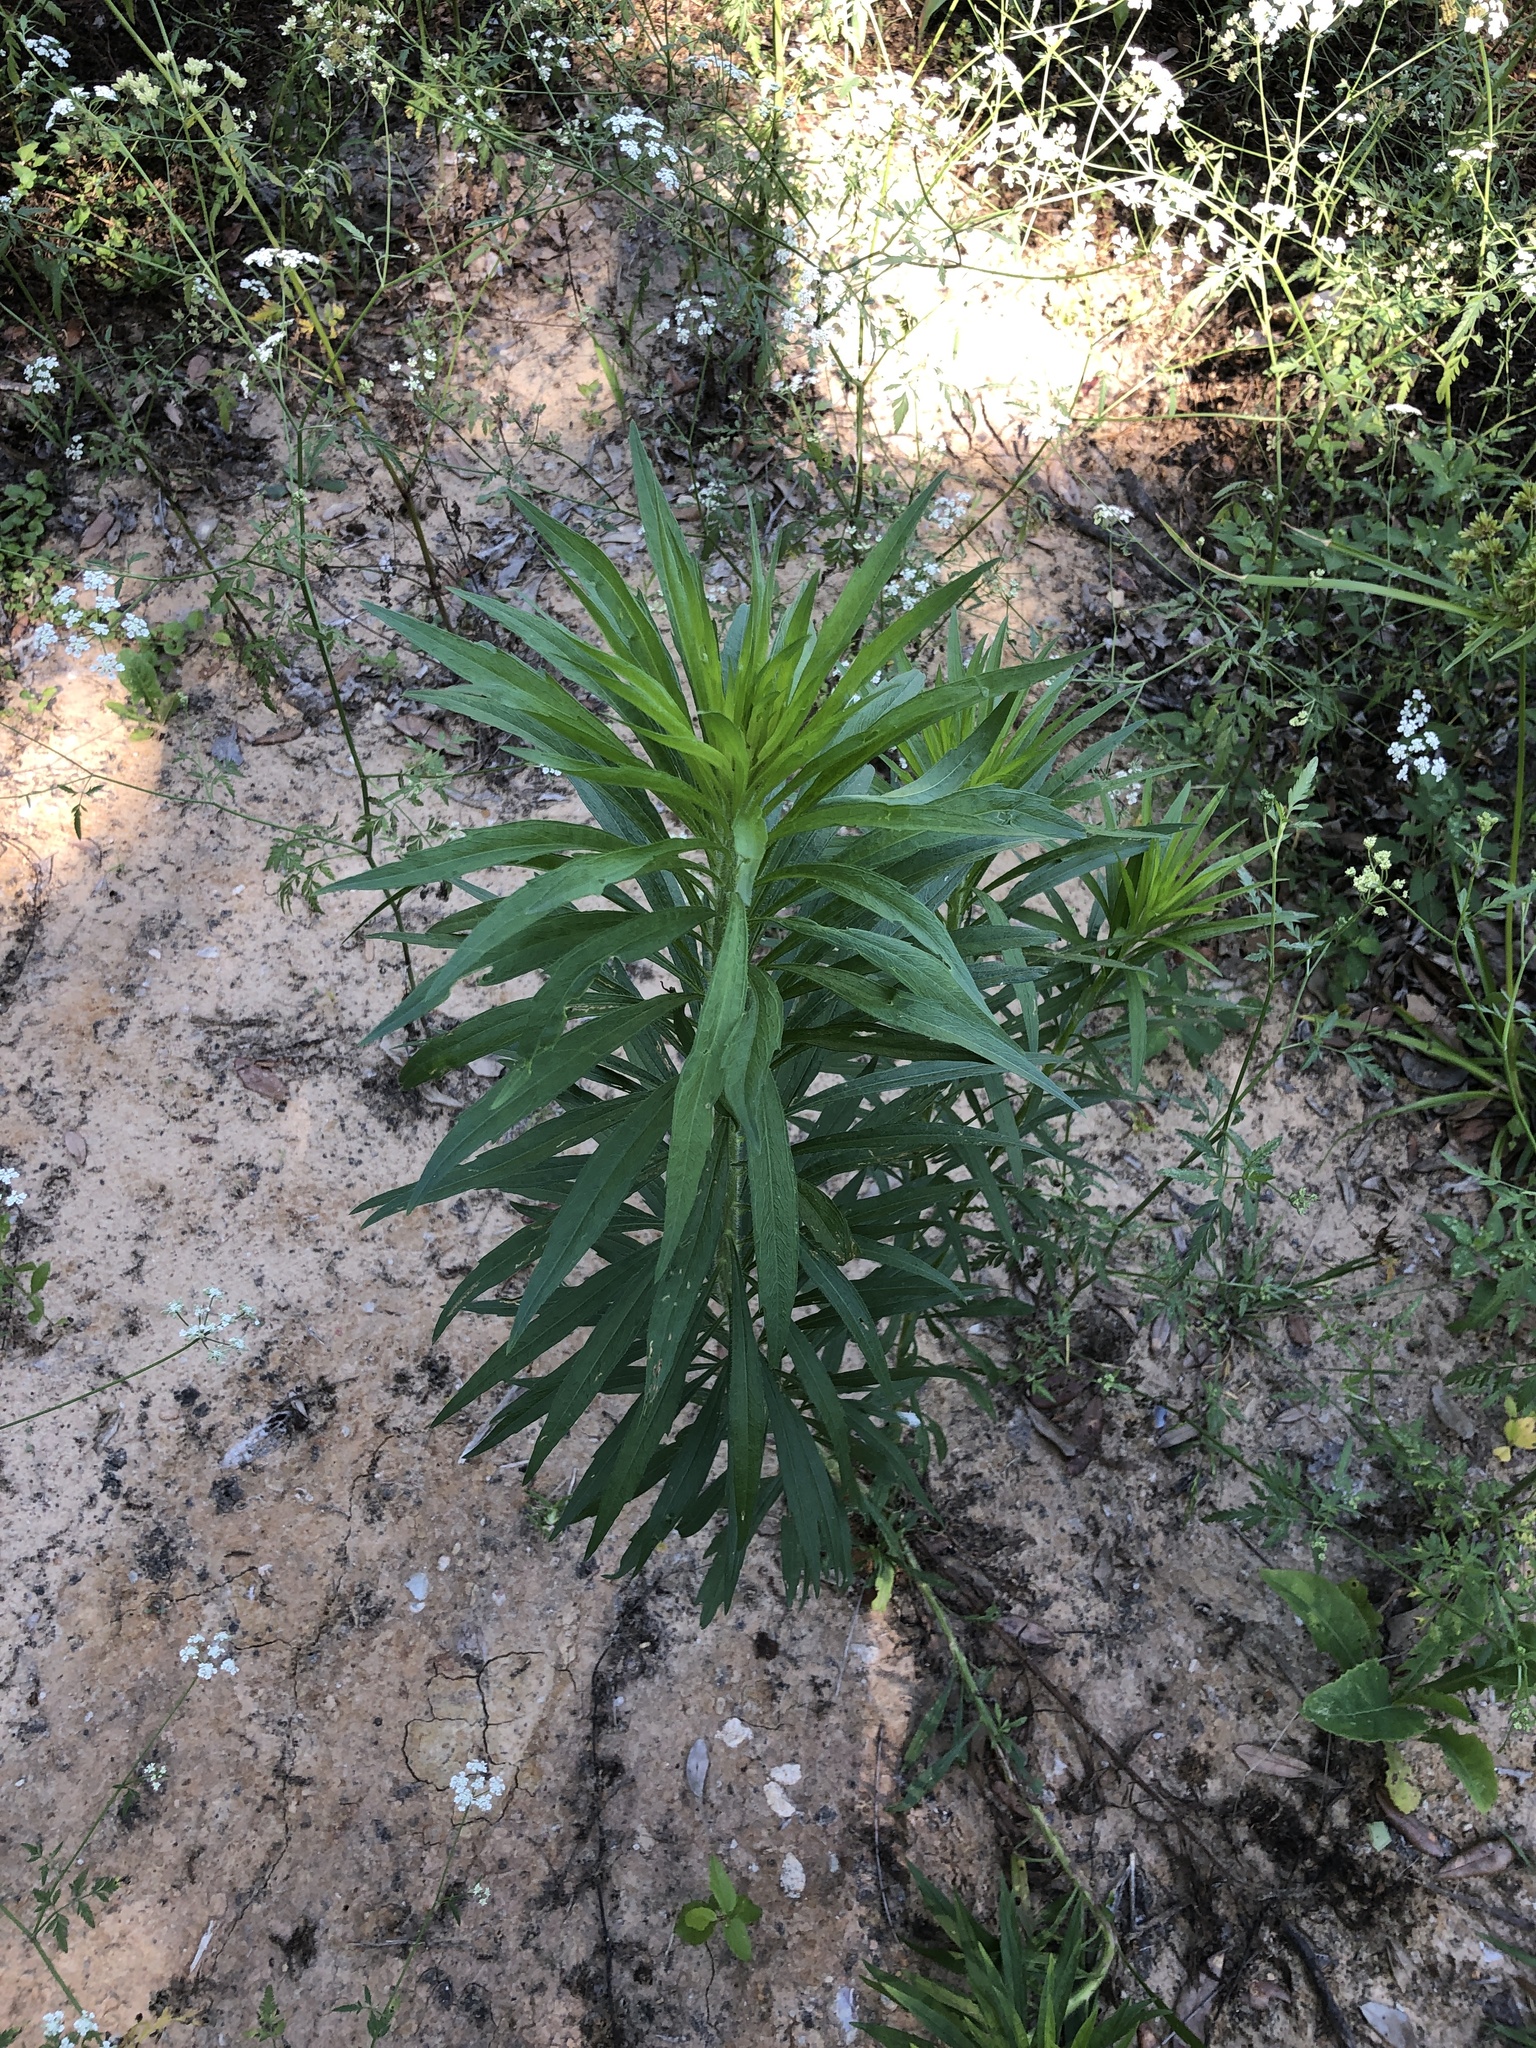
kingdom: Plantae
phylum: Tracheophyta
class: Magnoliopsida
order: Asterales
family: Asteraceae
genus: Erigeron
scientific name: Erigeron canadensis
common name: Canadian fleabane
